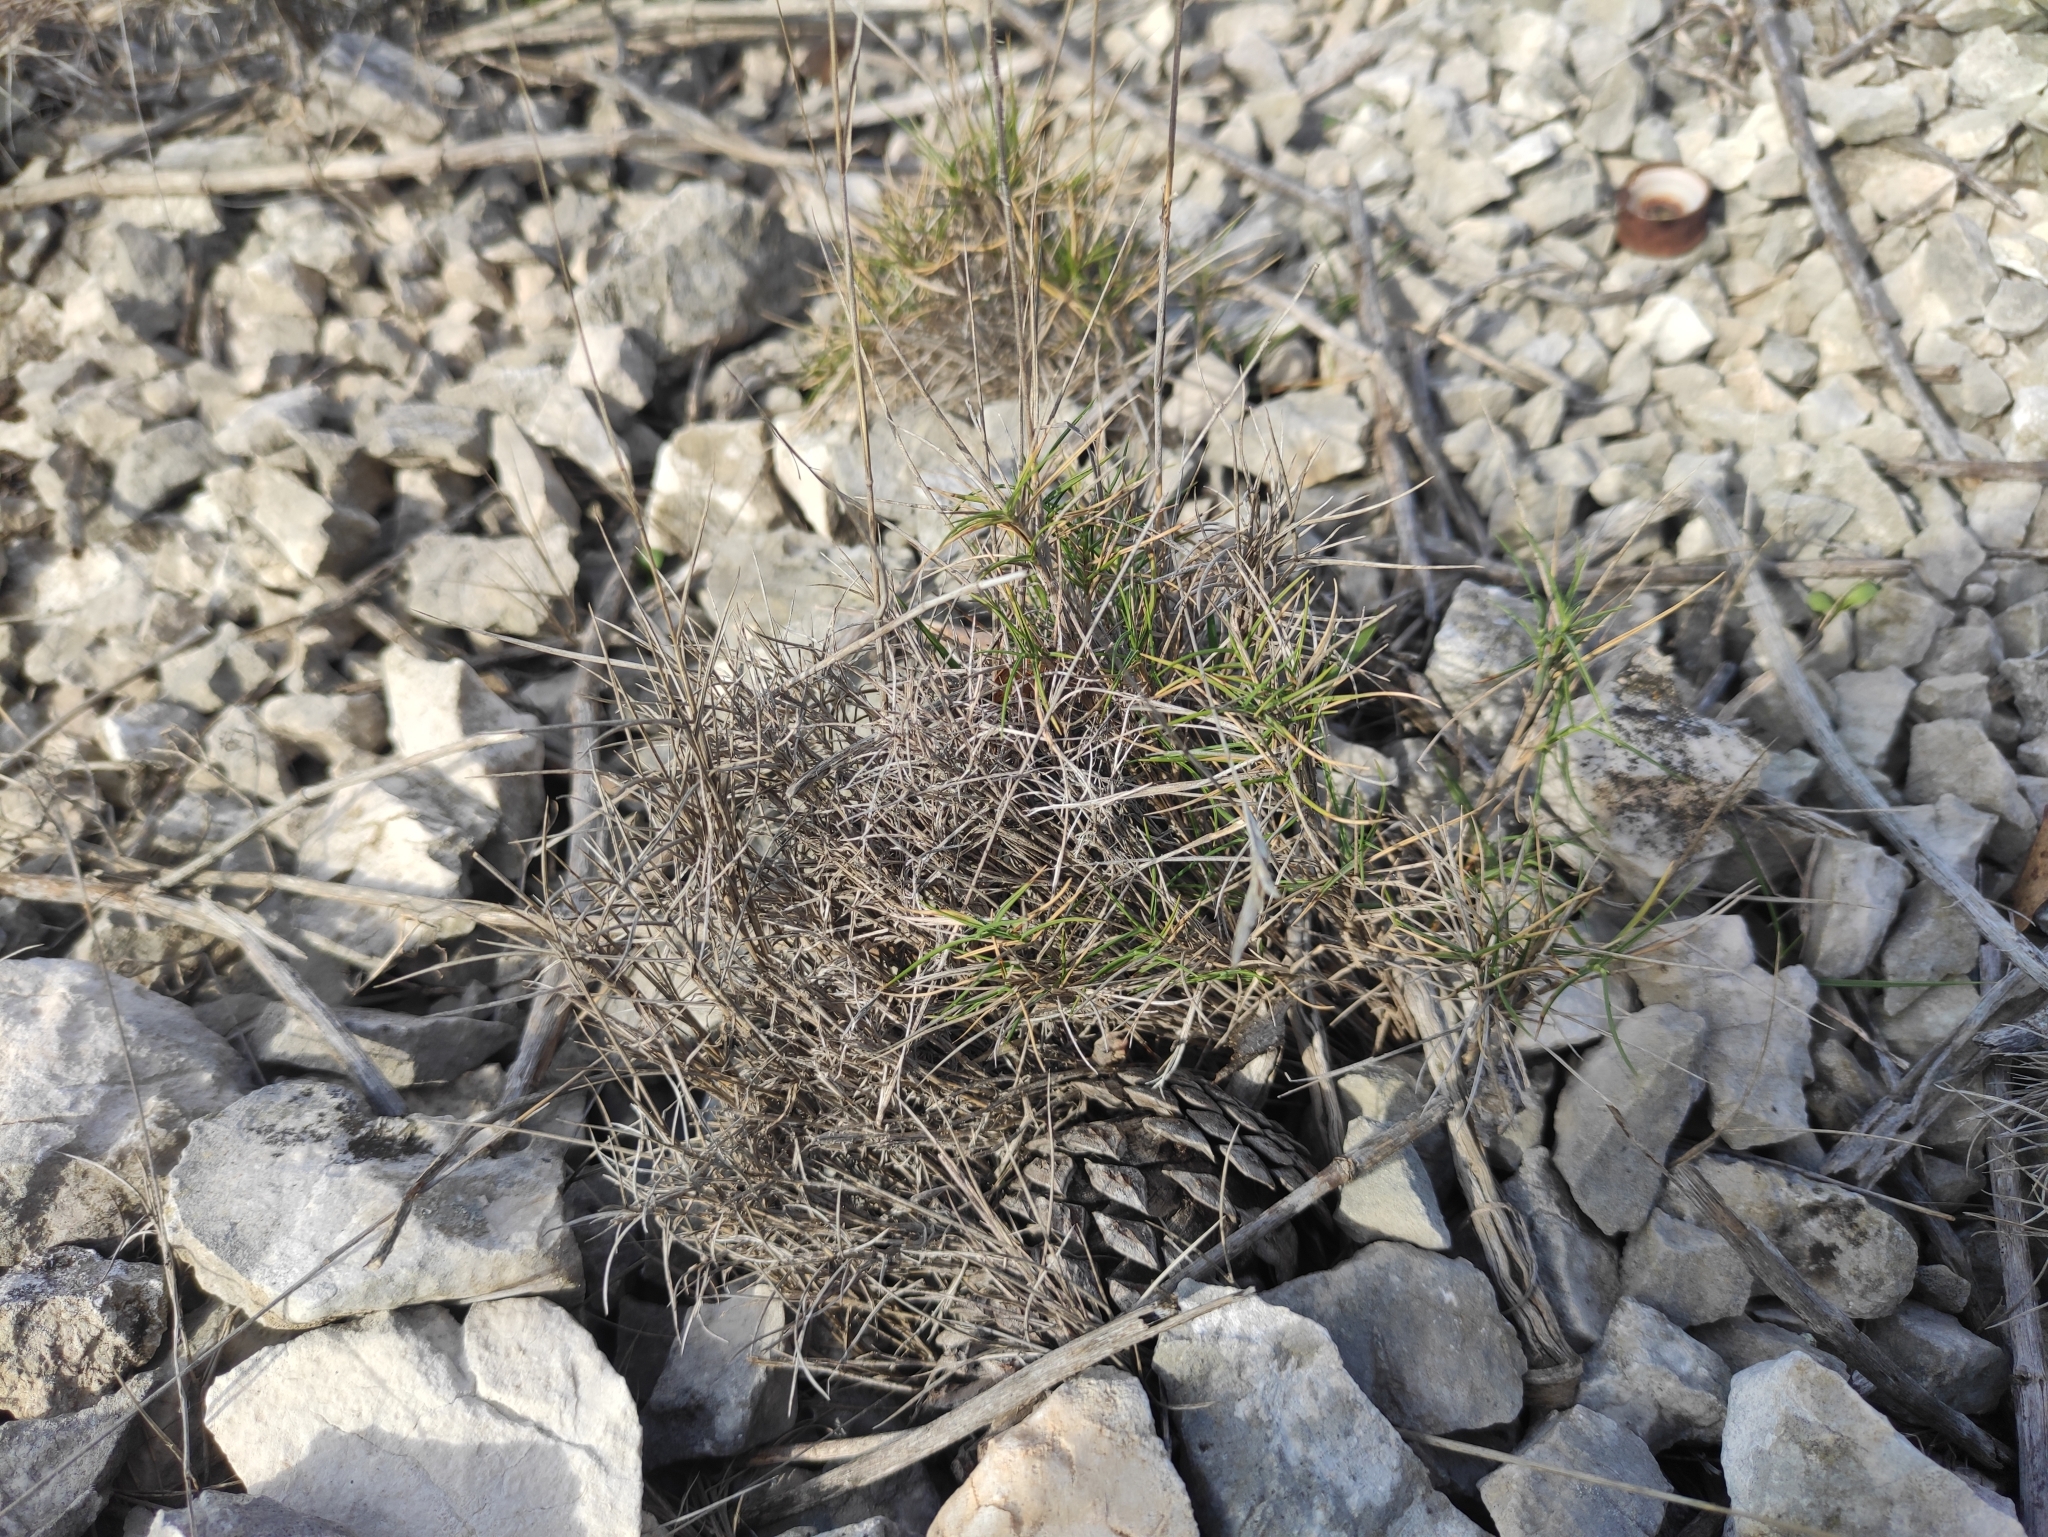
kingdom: Plantae
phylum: Tracheophyta
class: Liliopsida
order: Poales
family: Poaceae
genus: Brachypodium
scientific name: Brachypodium retusum
